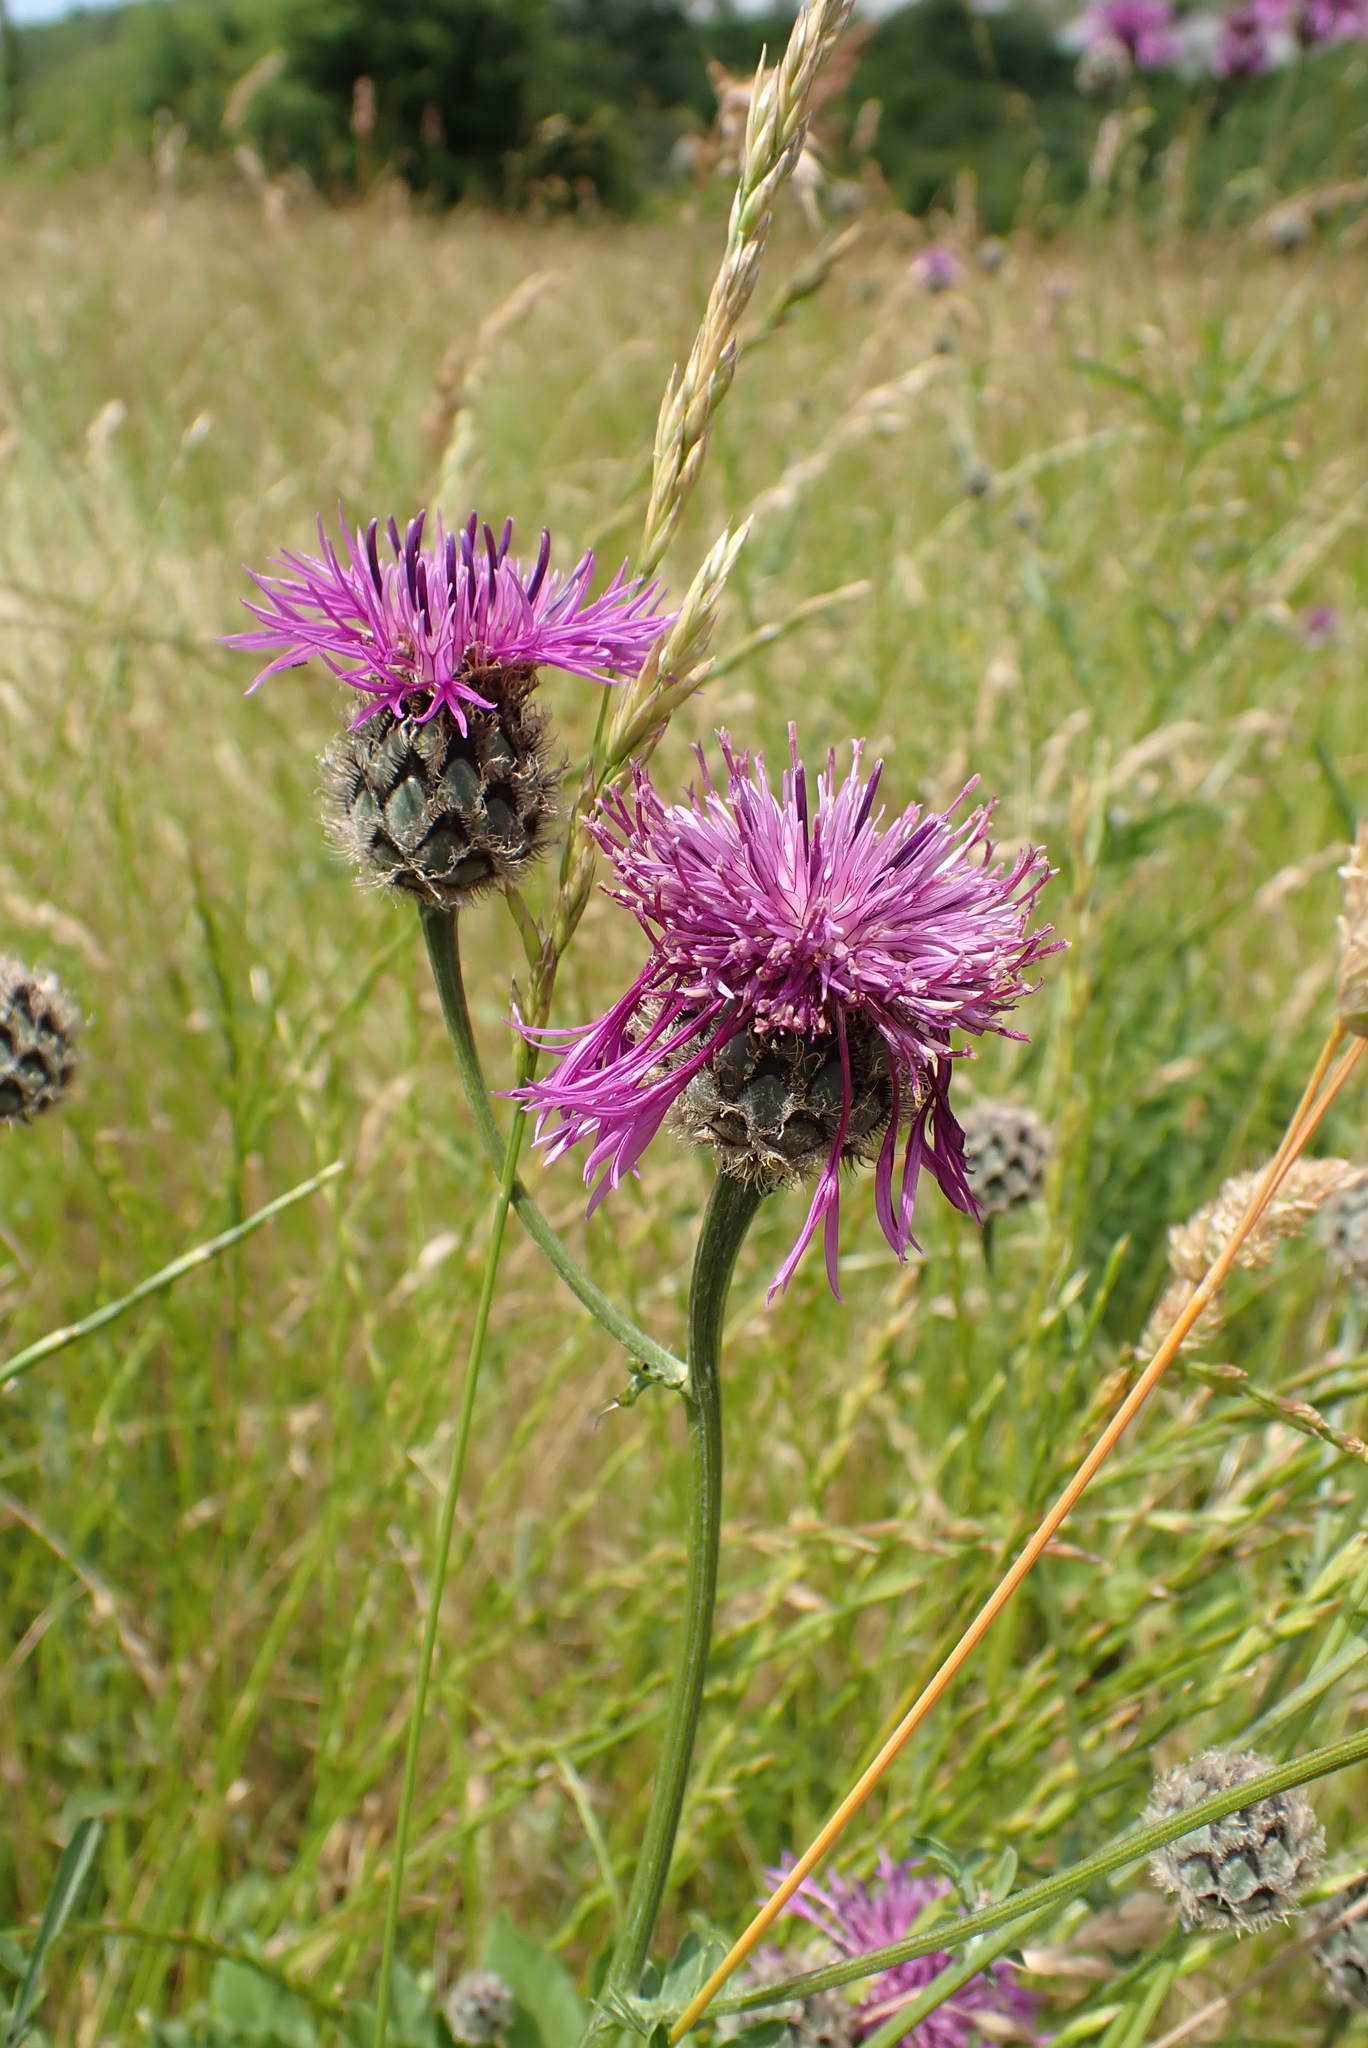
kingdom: Plantae
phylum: Tracheophyta
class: Magnoliopsida
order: Asterales
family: Asteraceae
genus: Centaurea
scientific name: Centaurea scabiosa
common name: Greater knapweed
